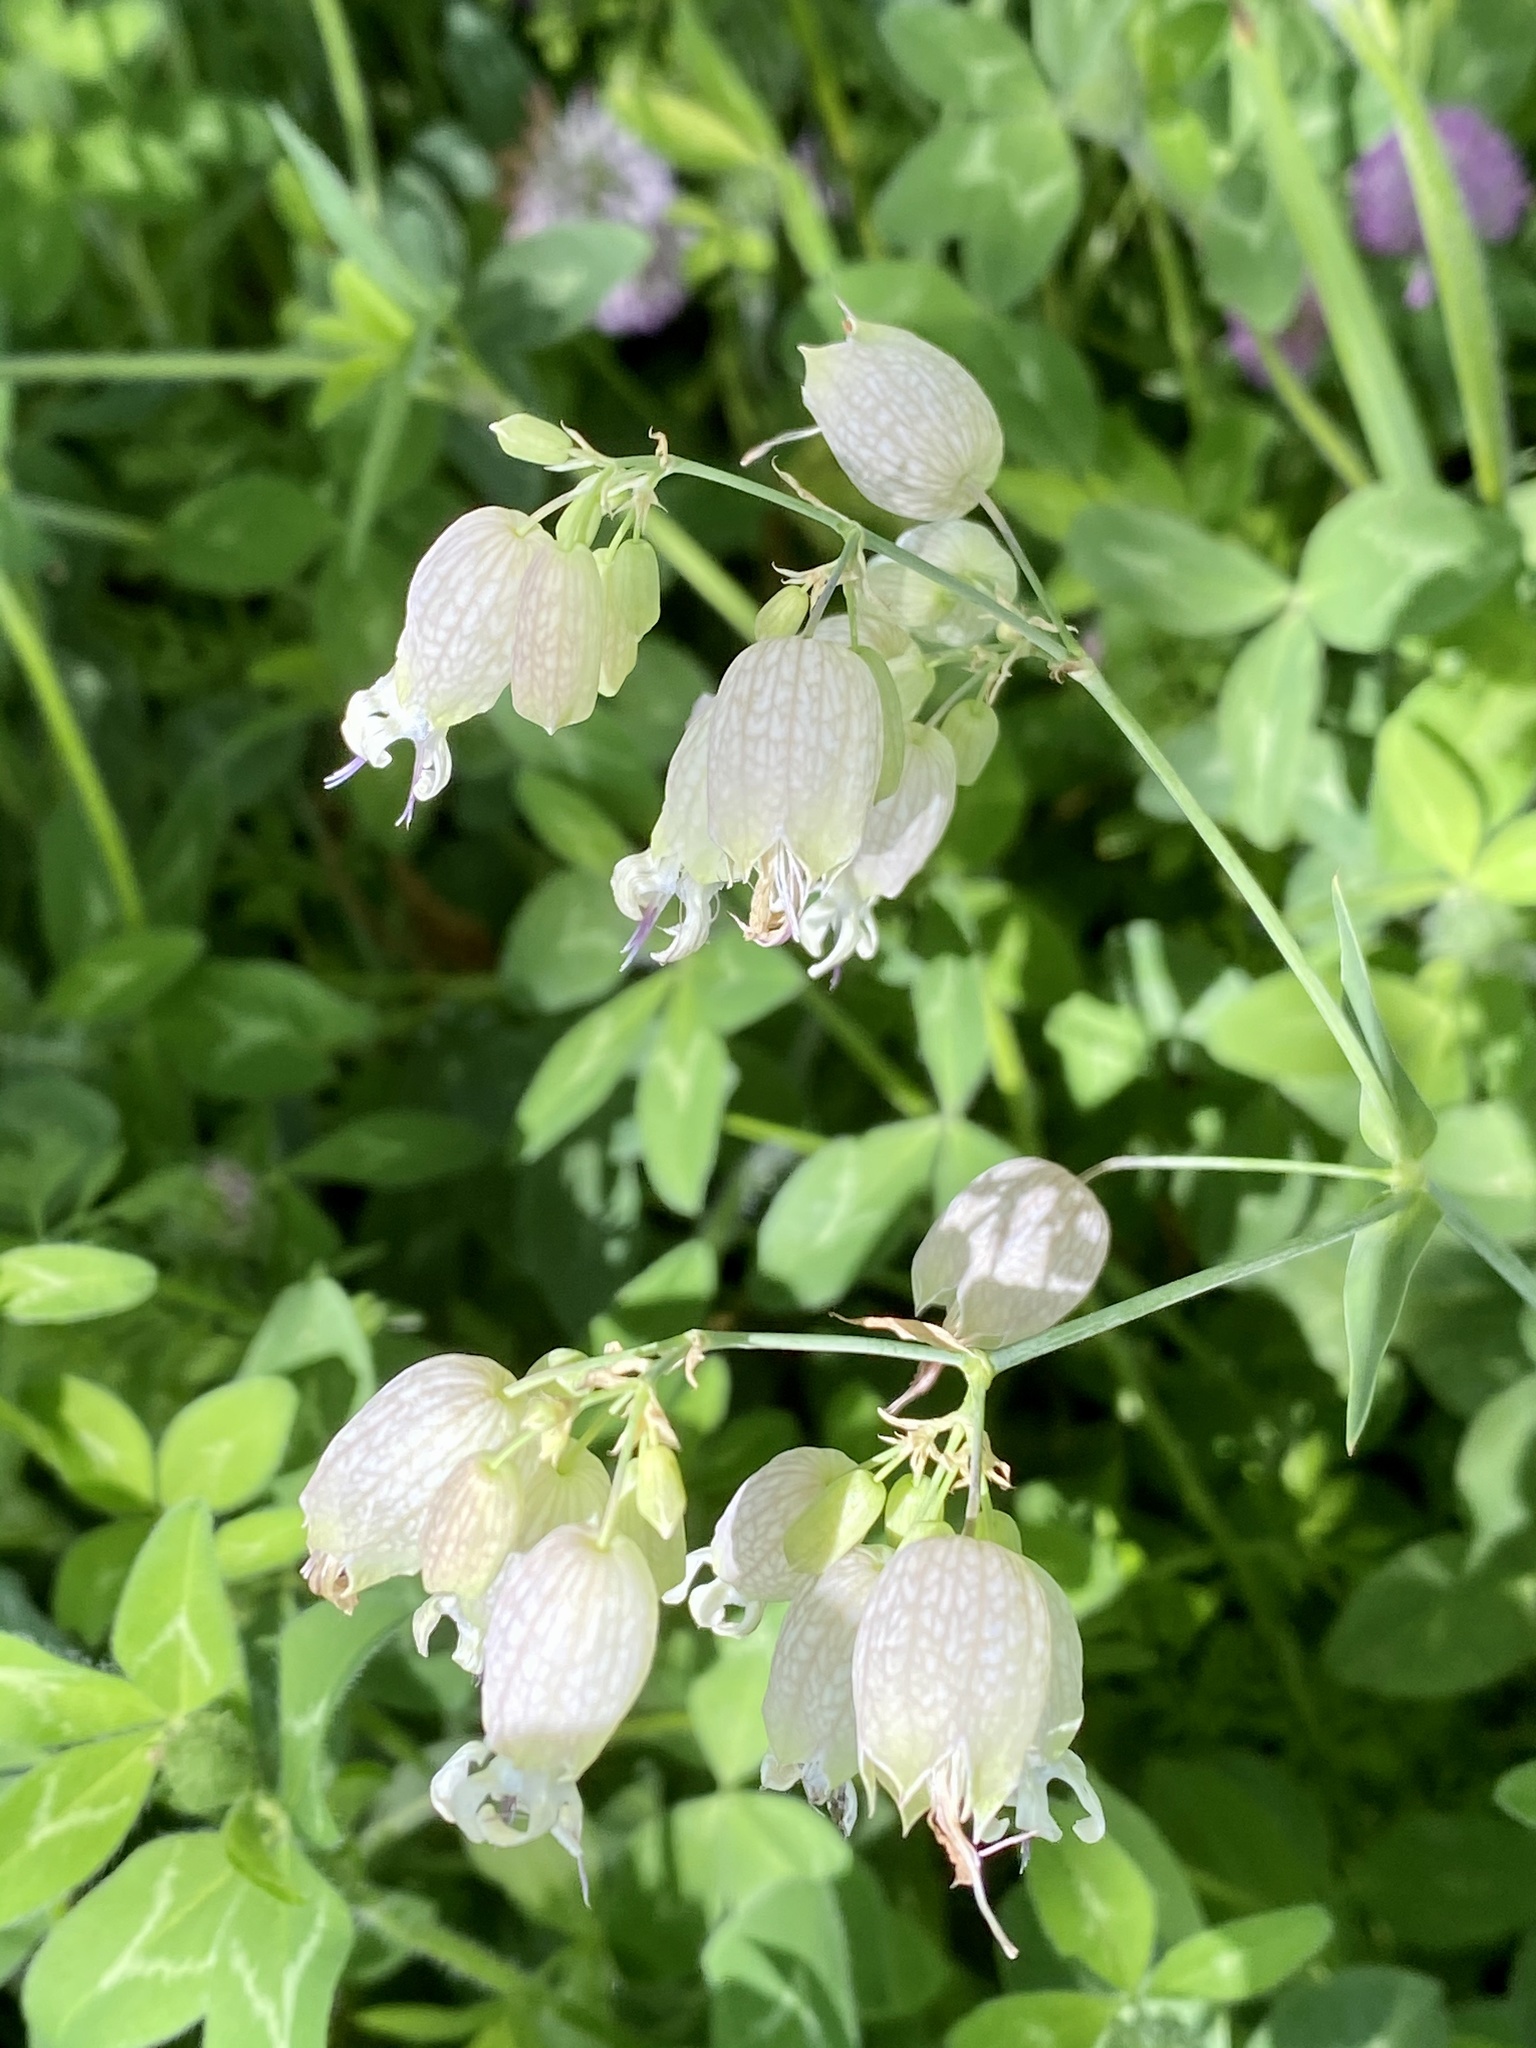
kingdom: Plantae
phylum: Tracheophyta
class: Magnoliopsida
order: Caryophyllales
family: Caryophyllaceae
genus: Silene
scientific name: Silene vulgaris
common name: Bladder campion
